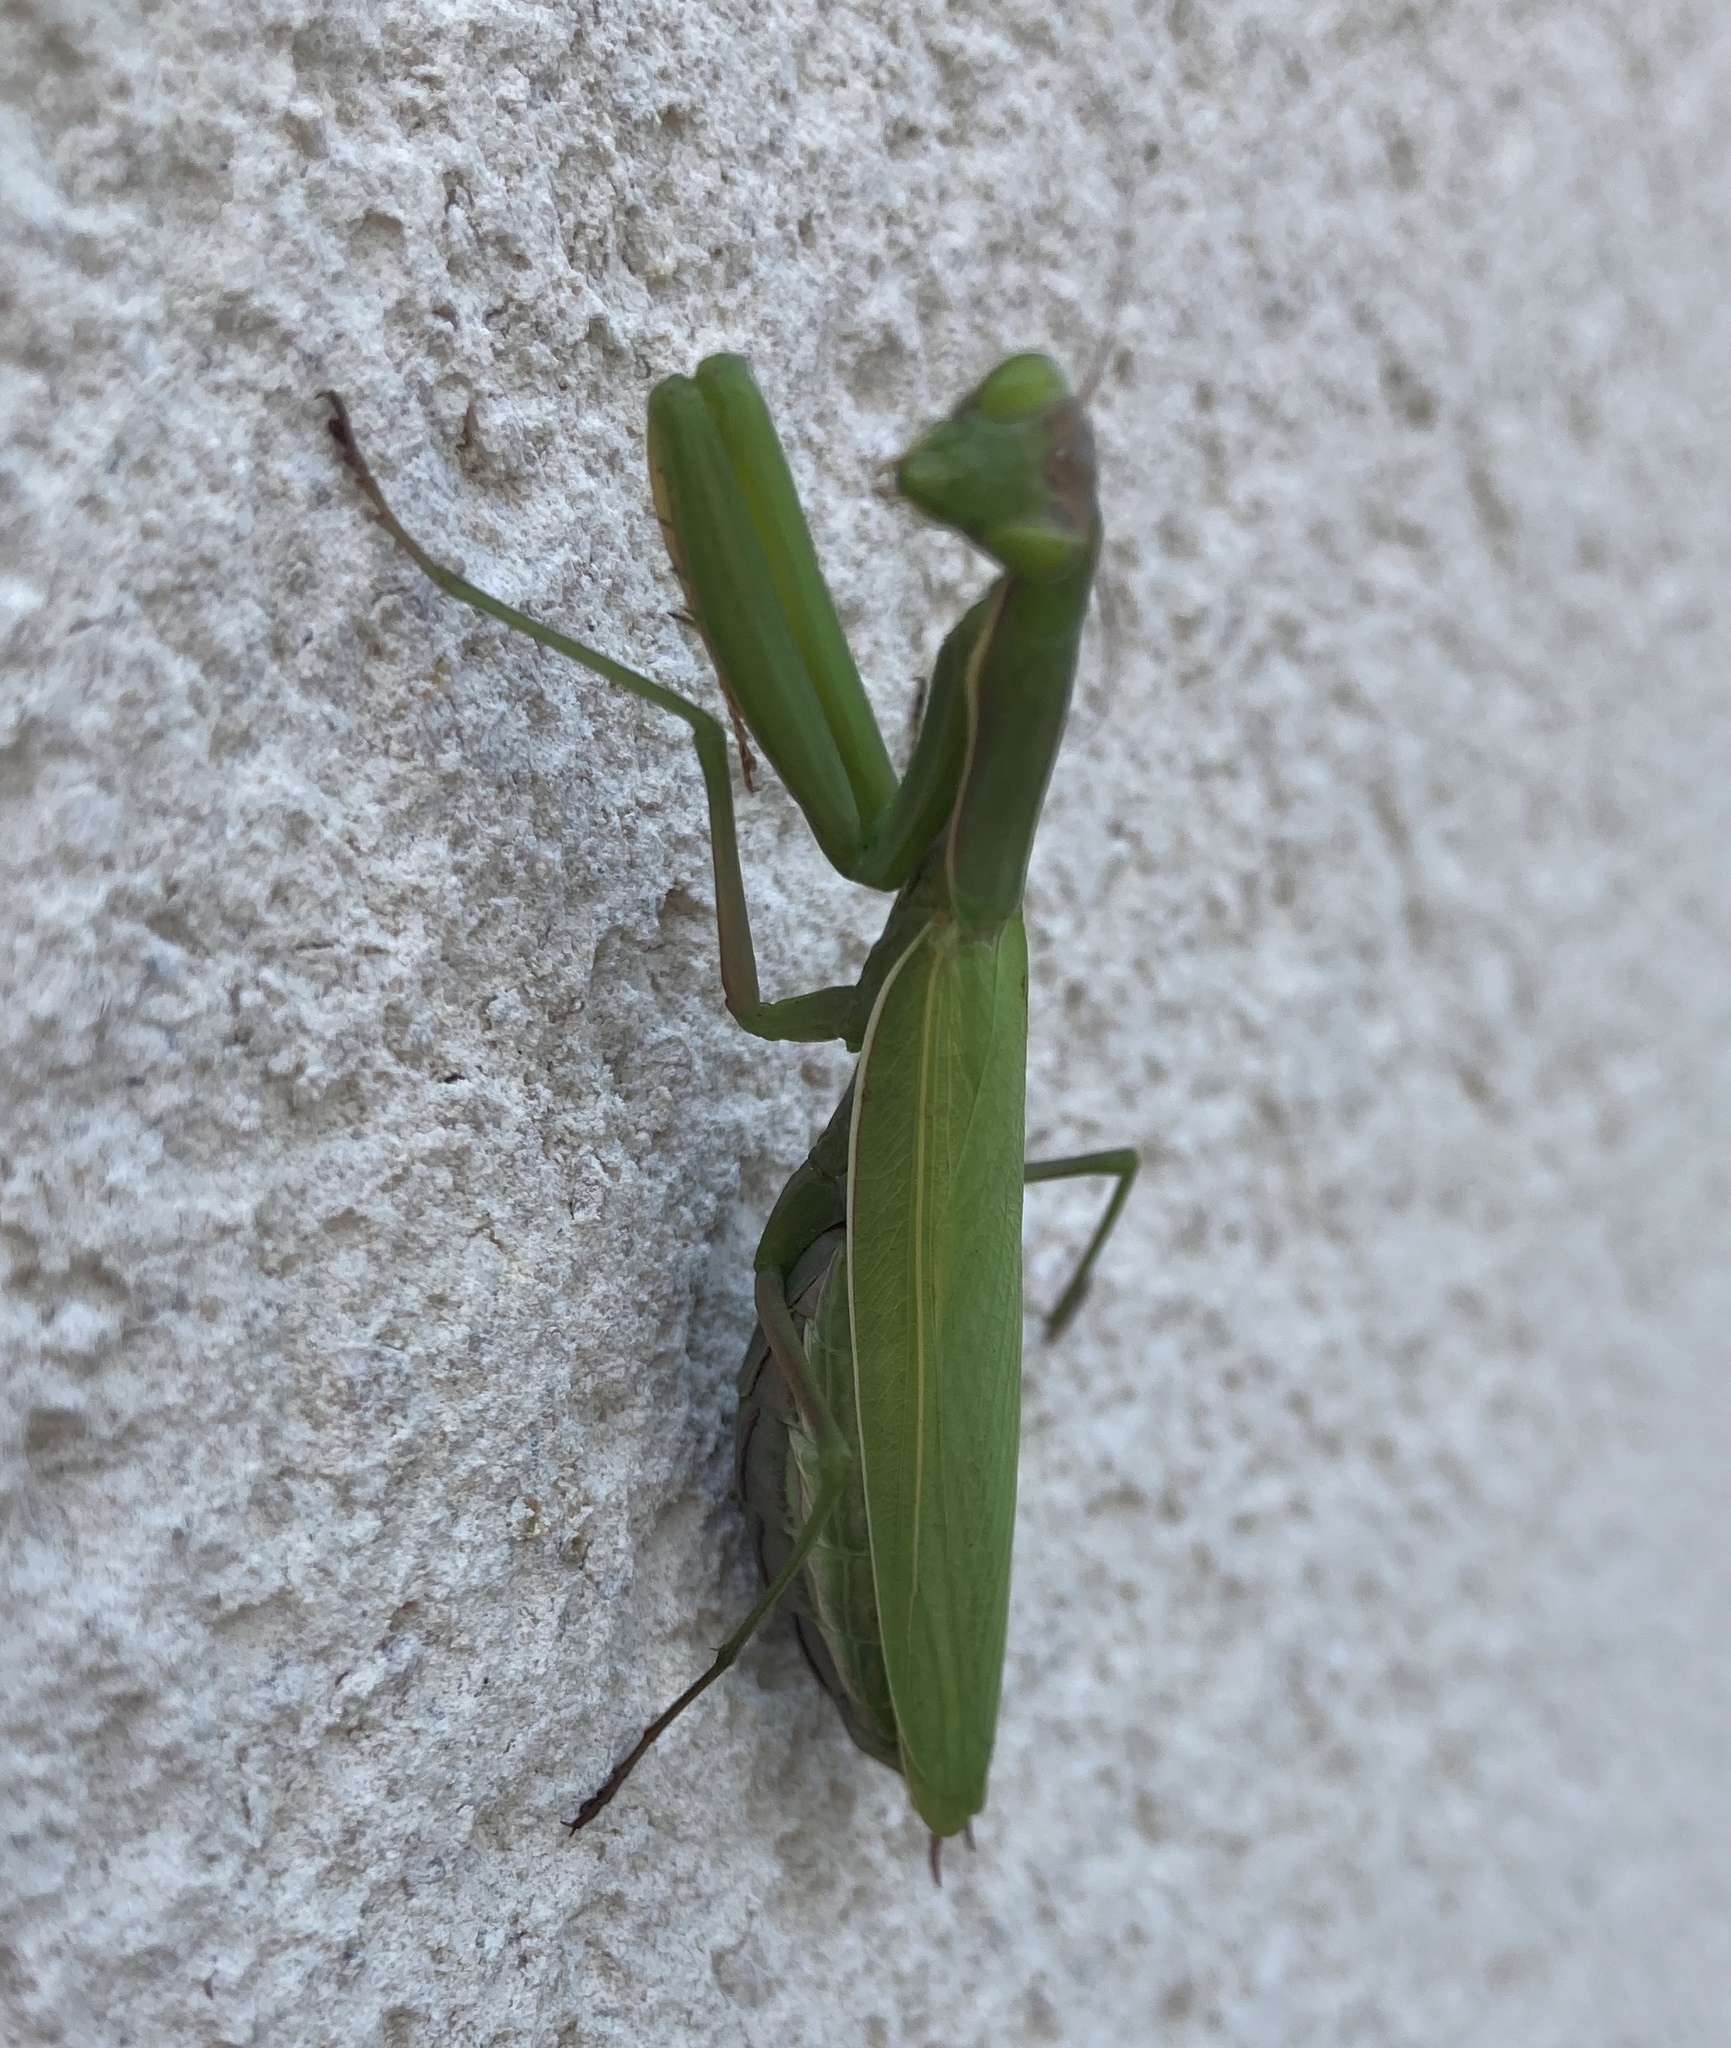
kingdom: Animalia
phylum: Arthropoda
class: Insecta
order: Mantodea
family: Mantidae
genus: Mantis
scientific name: Mantis religiosa
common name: Praying mantis
